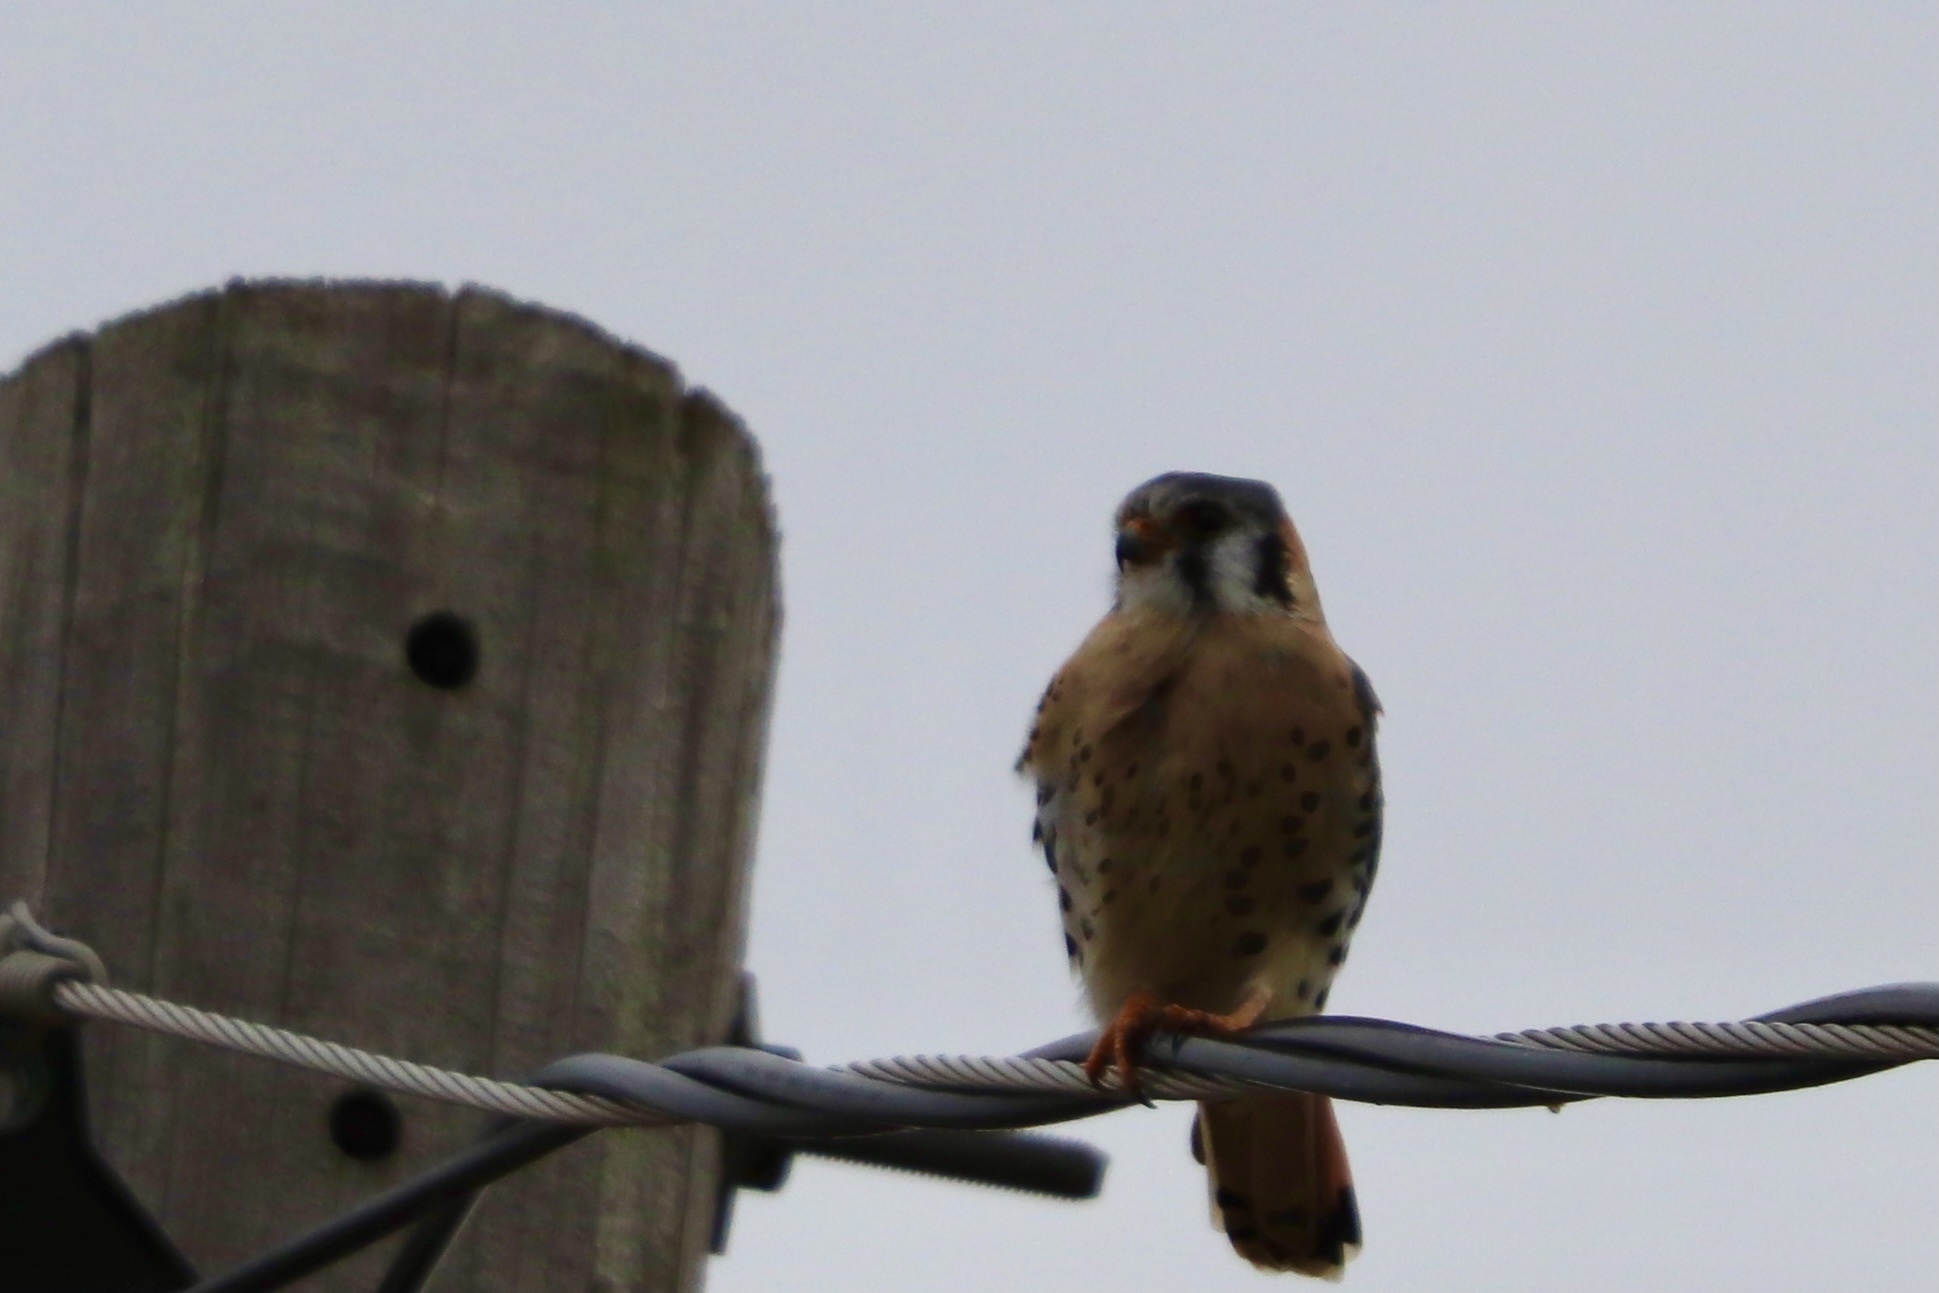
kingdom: Animalia
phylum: Chordata
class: Aves
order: Falconiformes
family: Falconidae
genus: Falco
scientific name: Falco sparverius
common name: American kestrel
